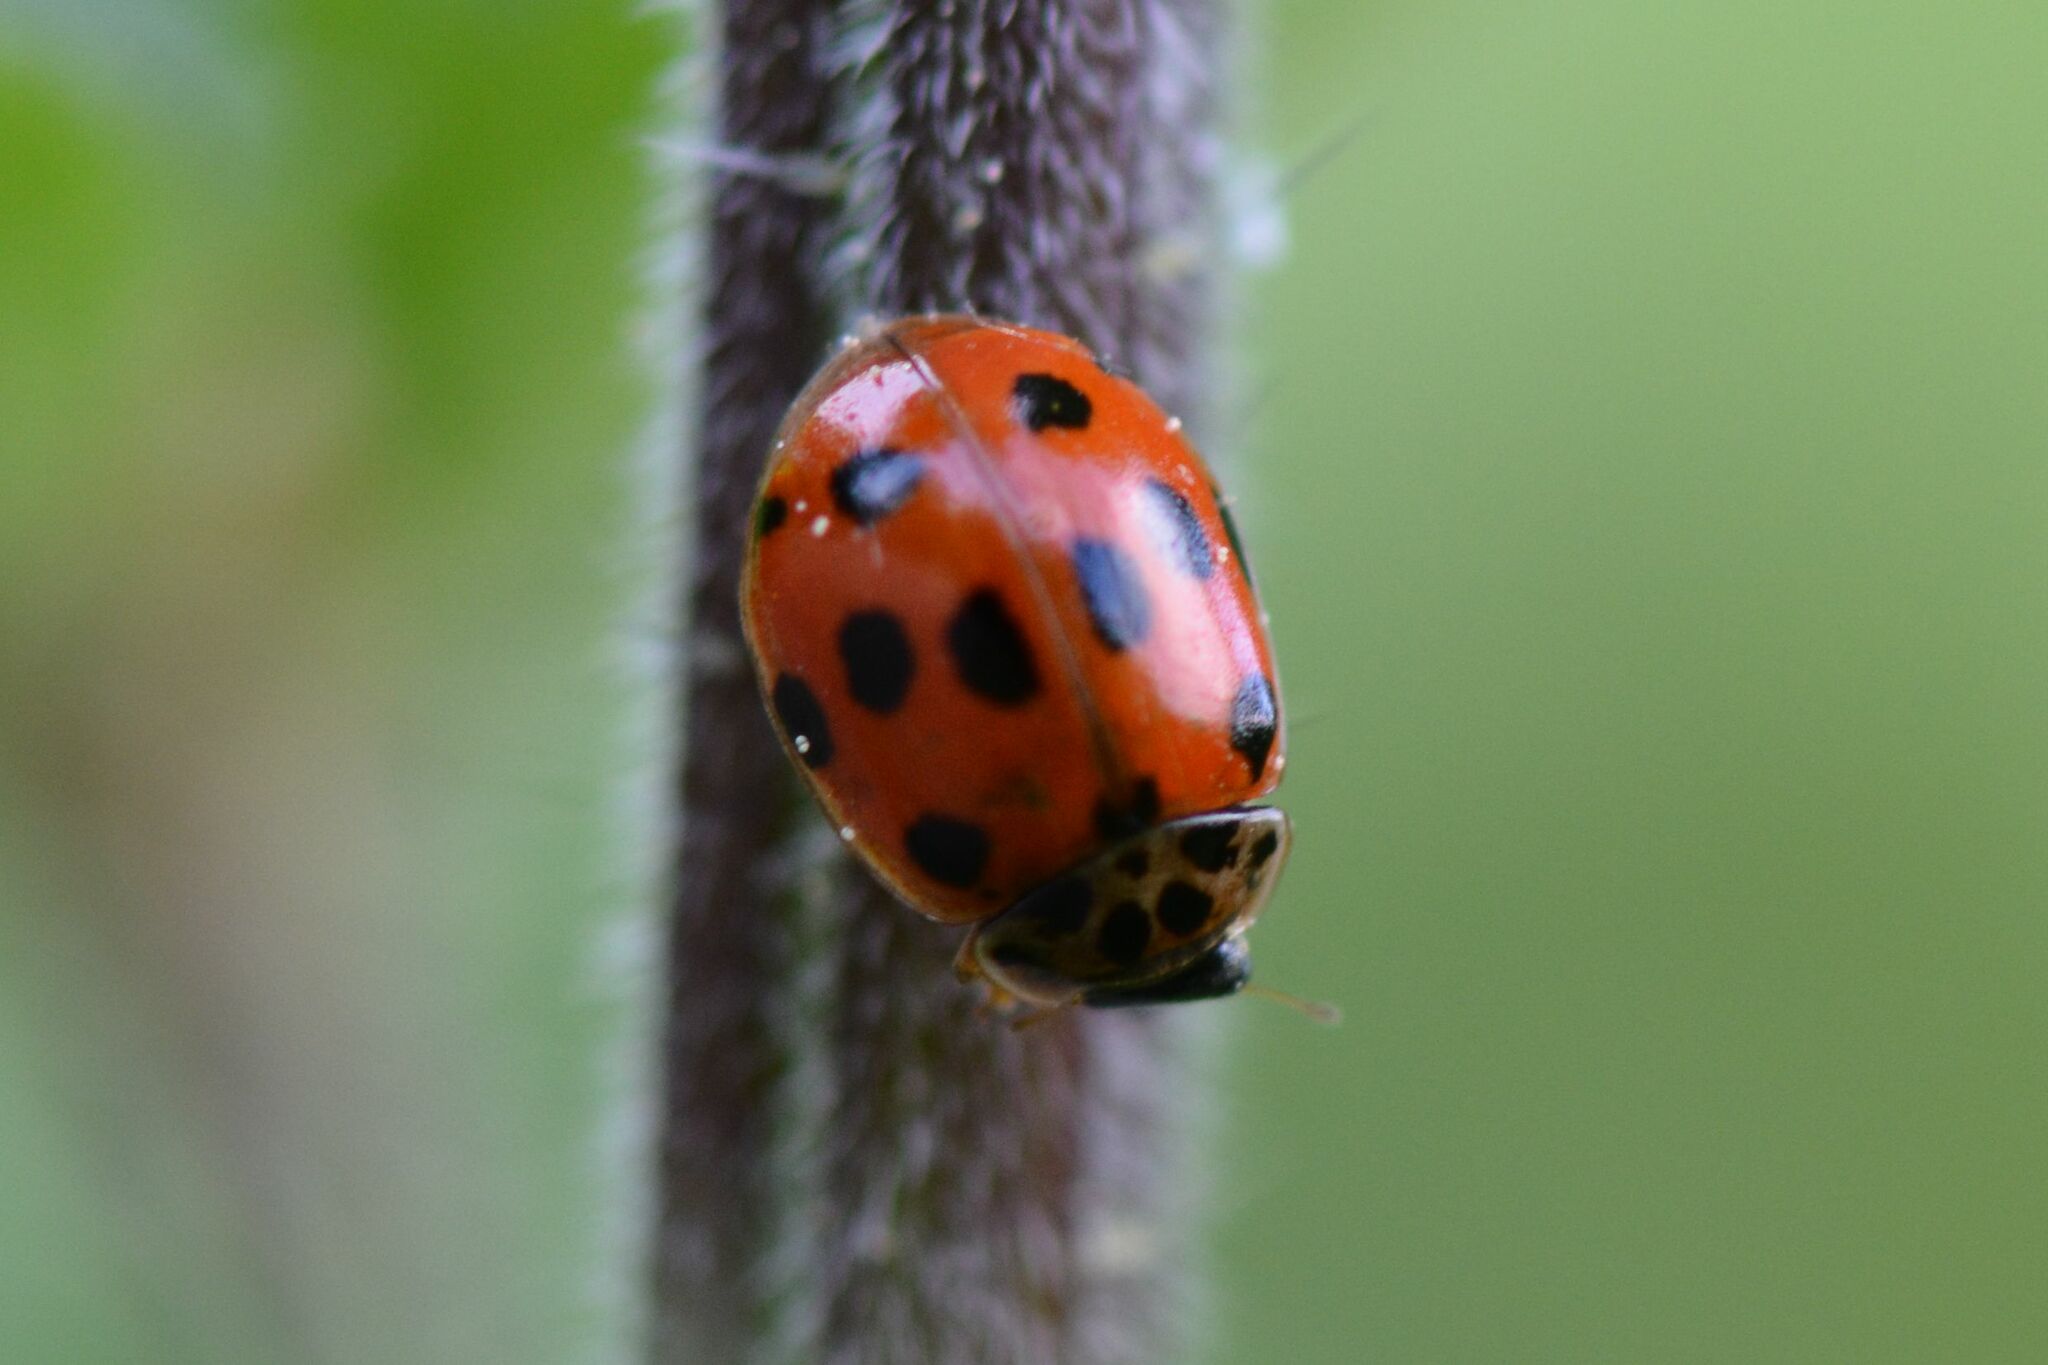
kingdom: Animalia
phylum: Arthropoda
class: Insecta
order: Coleoptera
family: Coccinellidae
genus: Adalia
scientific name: Adalia decempunctata
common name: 10-spot ladybird
